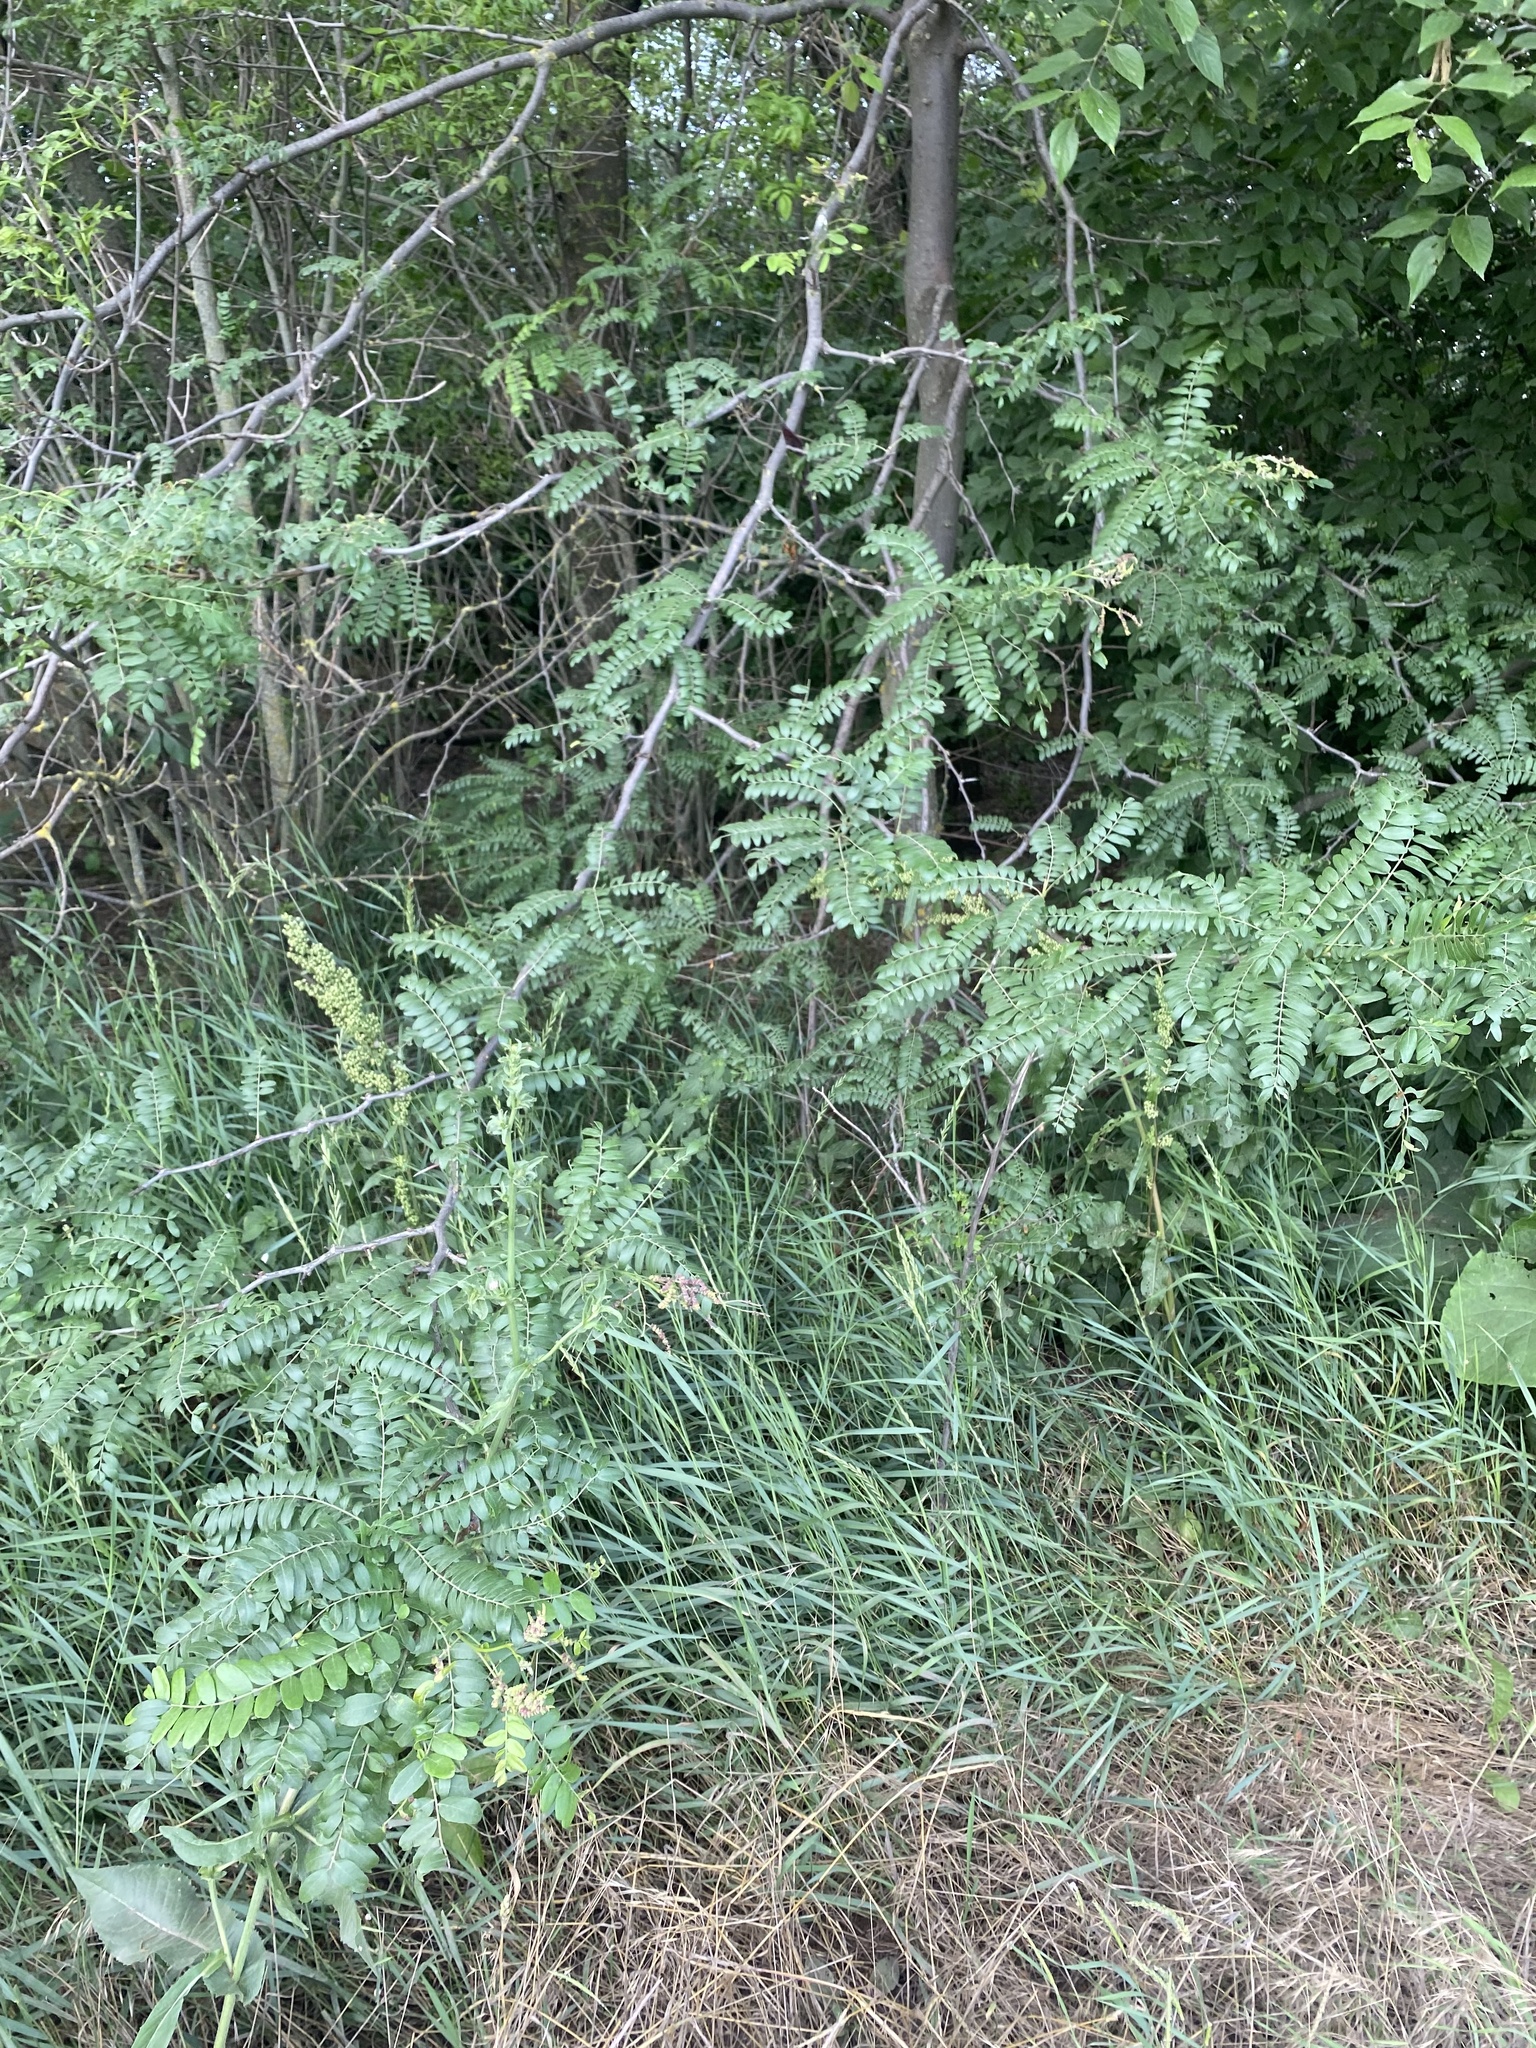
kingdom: Plantae
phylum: Tracheophyta
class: Magnoliopsida
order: Fabales
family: Fabaceae
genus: Gleditsia
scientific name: Gleditsia triacanthos
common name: Common honeylocust
